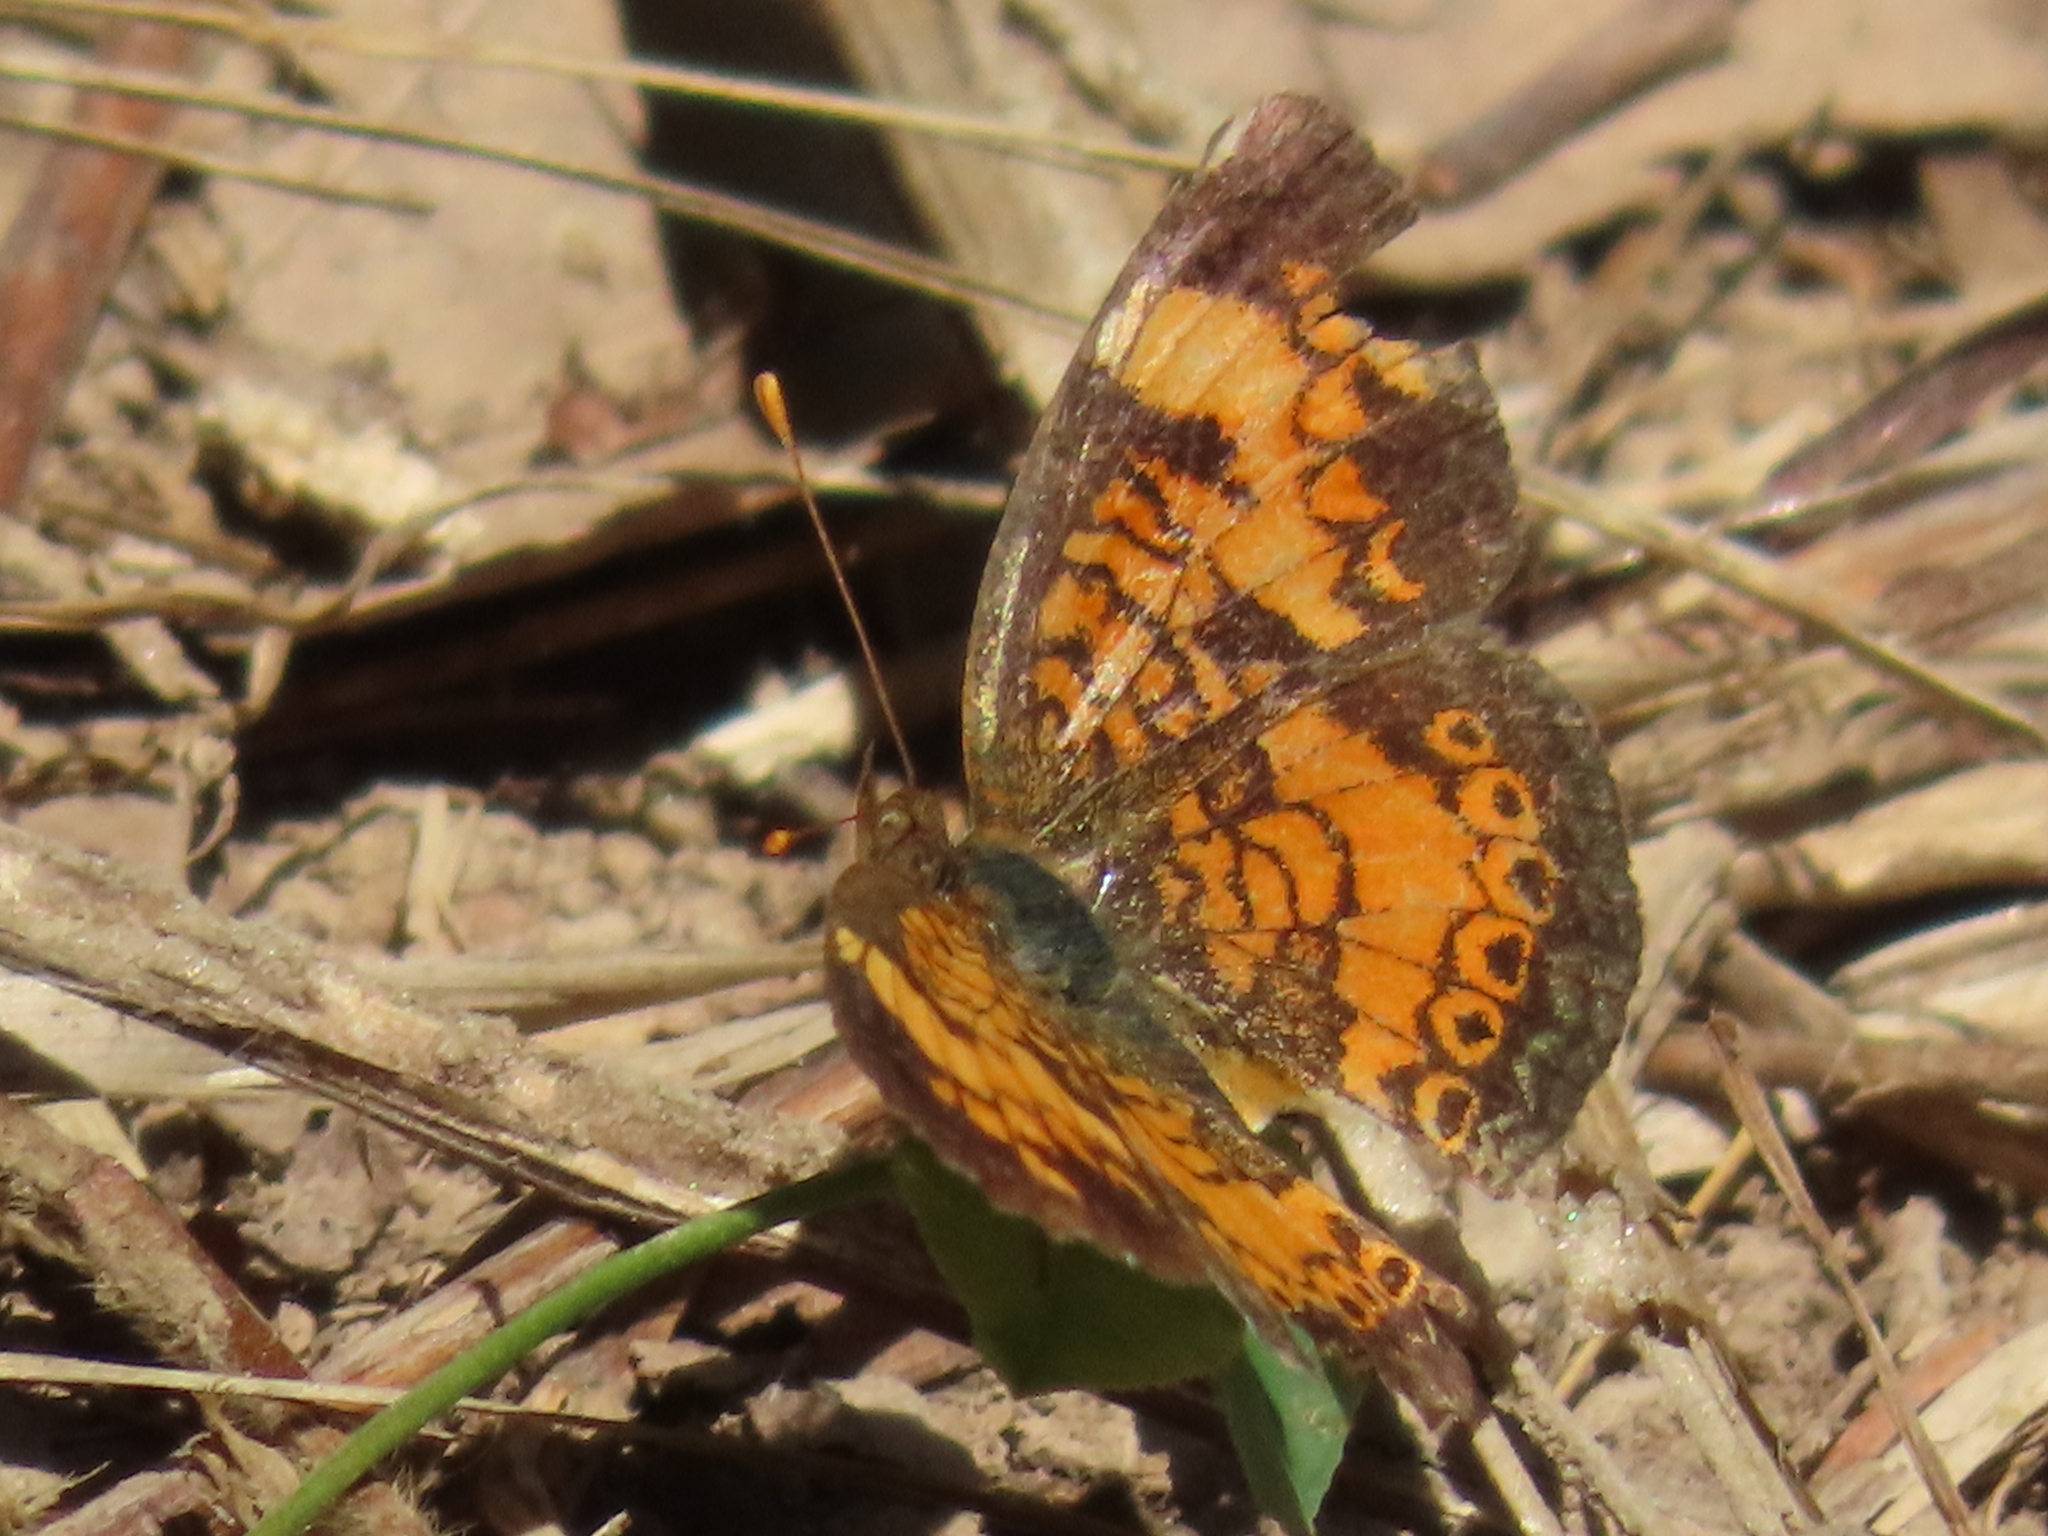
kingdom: Animalia
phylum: Arthropoda
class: Insecta
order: Lepidoptera
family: Nymphalidae
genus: Phyciodes
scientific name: Phyciodes tharos
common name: Pearl crescent
